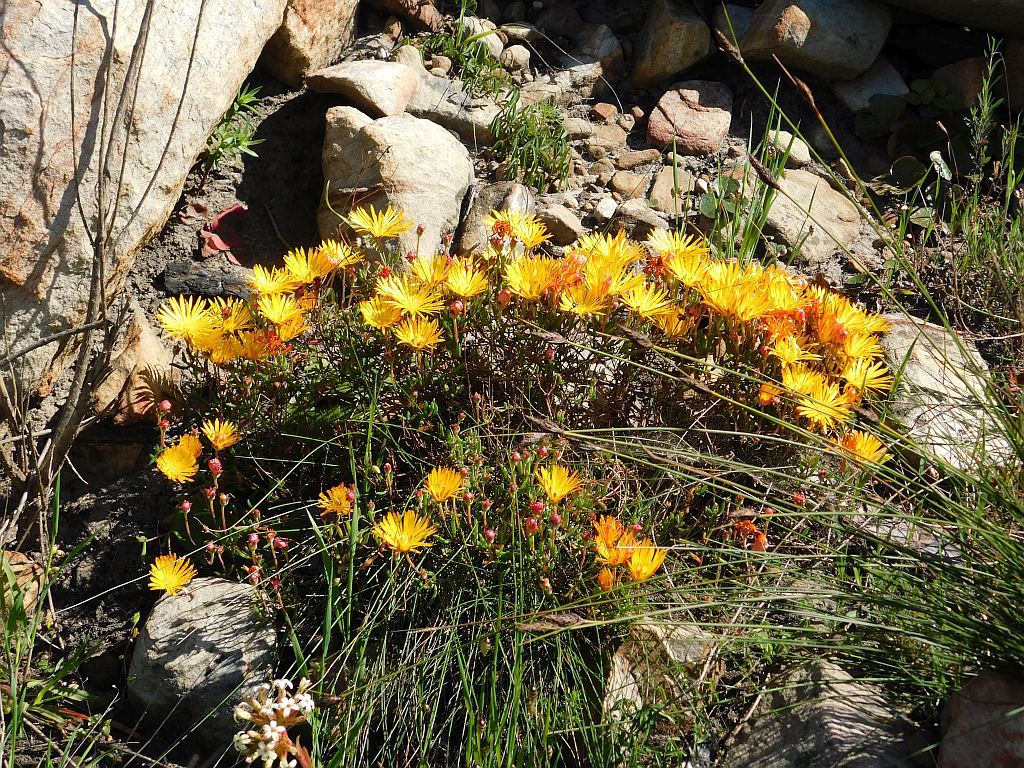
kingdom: Plantae
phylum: Tracheophyta
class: Magnoliopsida
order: Caryophyllales
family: Aizoaceae
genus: Drosanthemum
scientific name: Drosanthemum flavum
